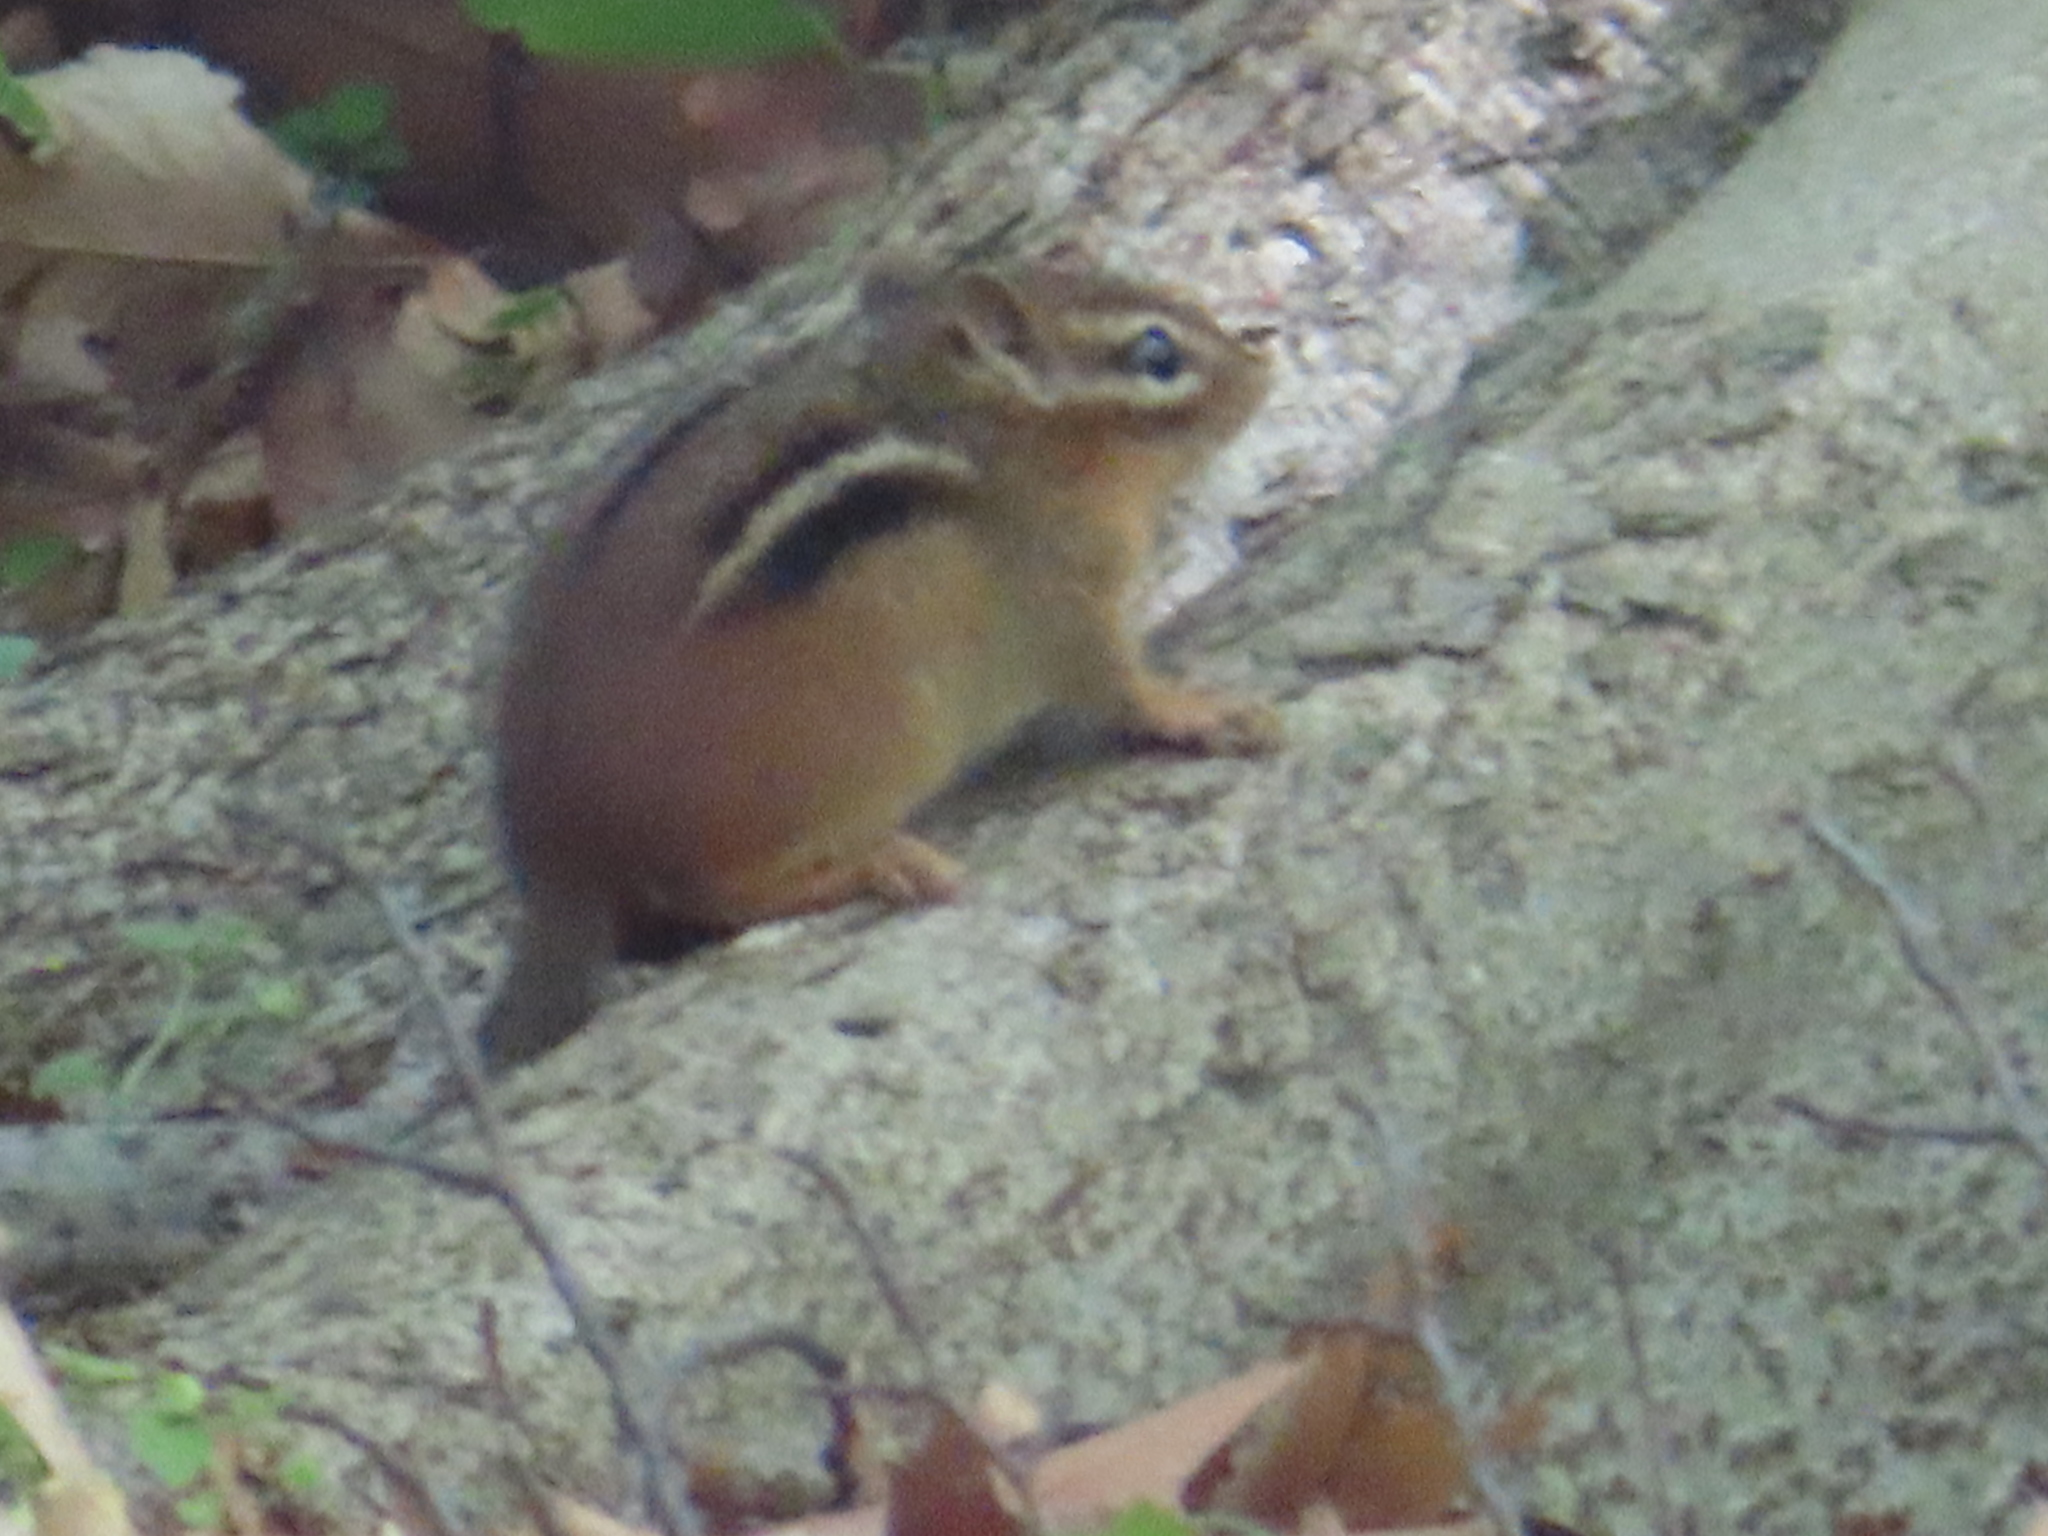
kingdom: Animalia
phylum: Chordata
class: Mammalia
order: Rodentia
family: Sciuridae
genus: Tamias
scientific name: Tamias striatus
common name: Eastern chipmunk
